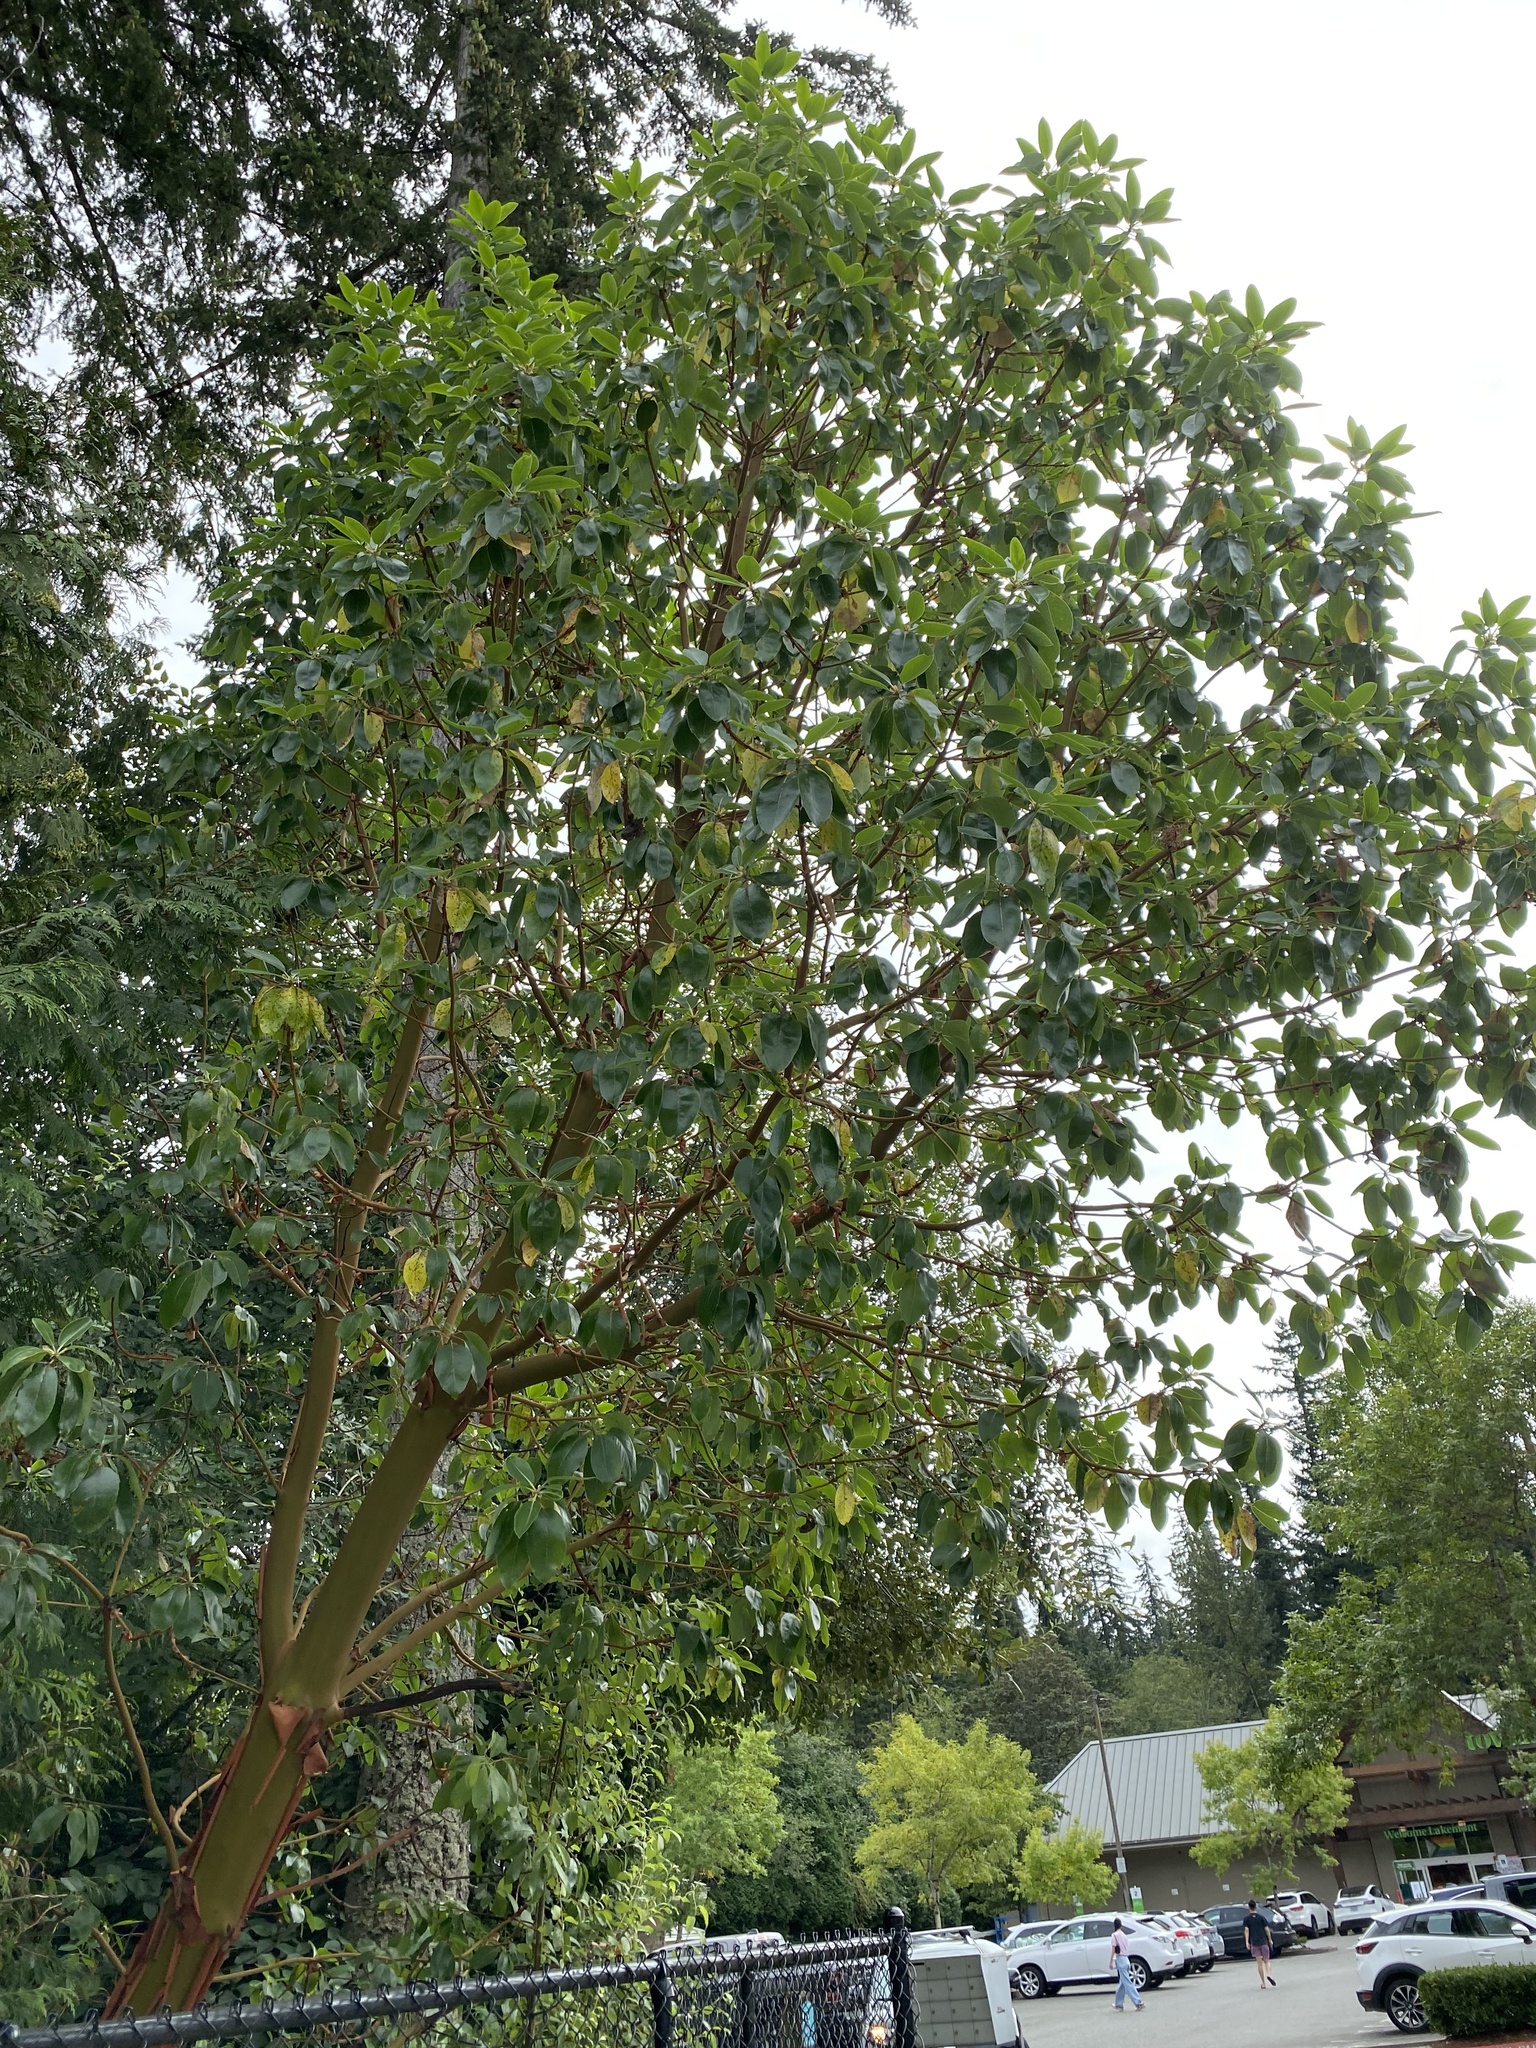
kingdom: Plantae
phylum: Tracheophyta
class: Magnoliopsida
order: Ericales
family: Ericaceae
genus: Arbutus
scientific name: Arbutus menziesii
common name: Pacific madrone
